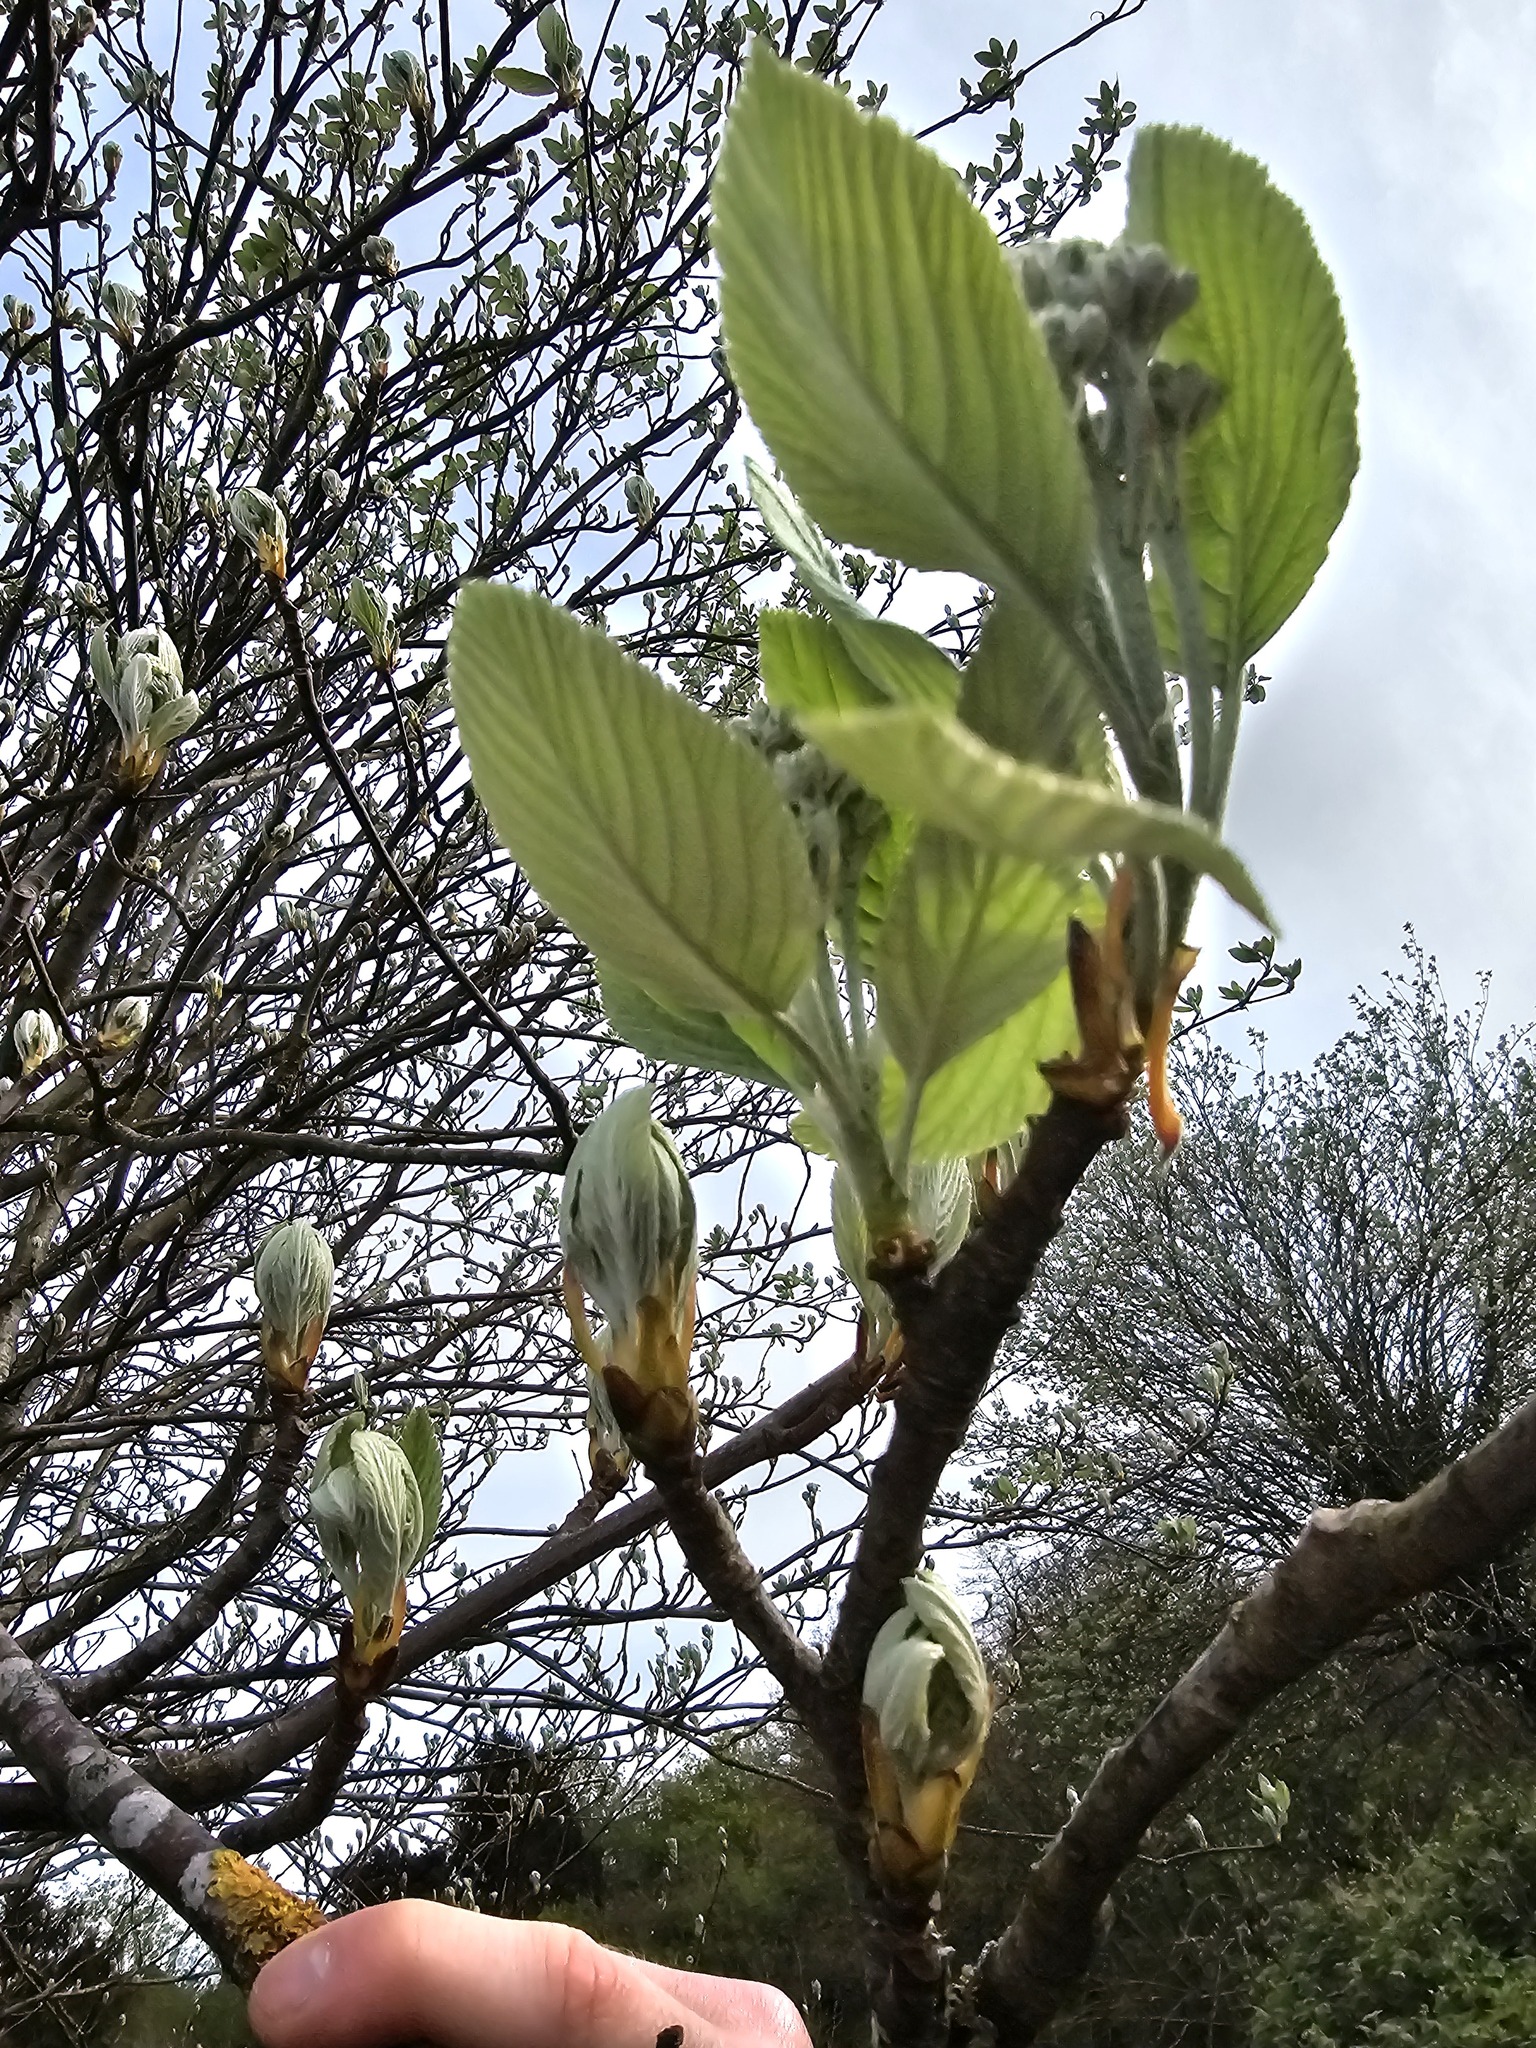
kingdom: Plantae
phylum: Tracheophyta
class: Magnoliopsida
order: Rosales
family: Rosaceae
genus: Aria
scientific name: Aria edulis
